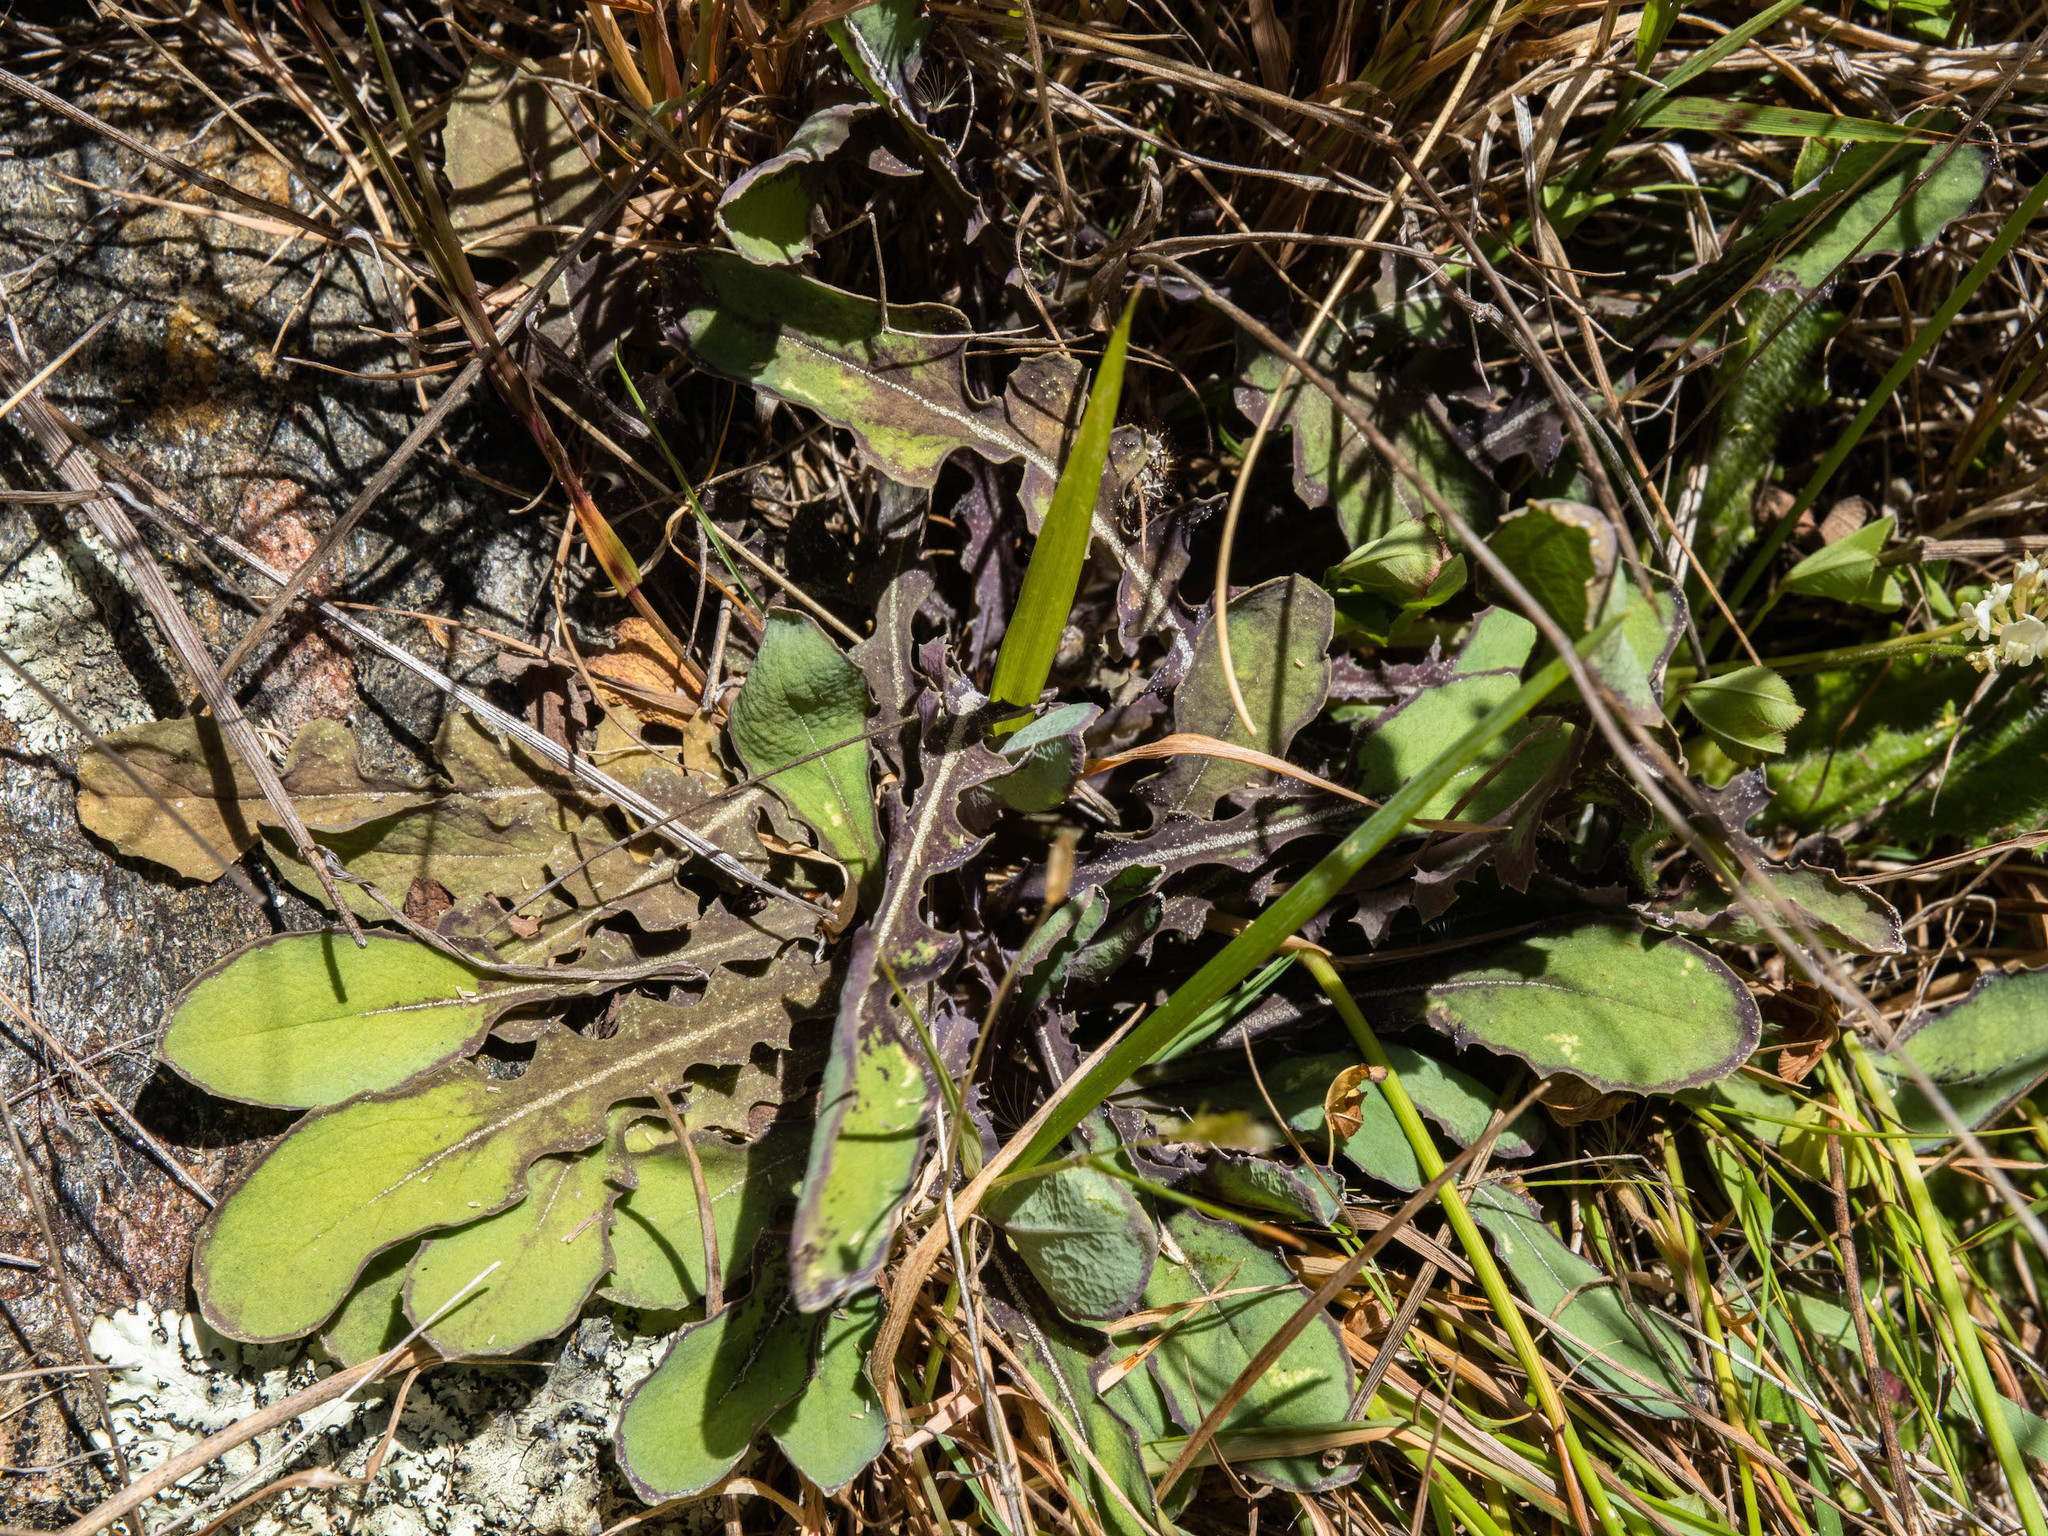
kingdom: Plantae
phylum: Tracheophyta
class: Magnoliopsida
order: Asterales
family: Asteraceae
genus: Sonchus
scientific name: Sonchus novae-zelandiae
